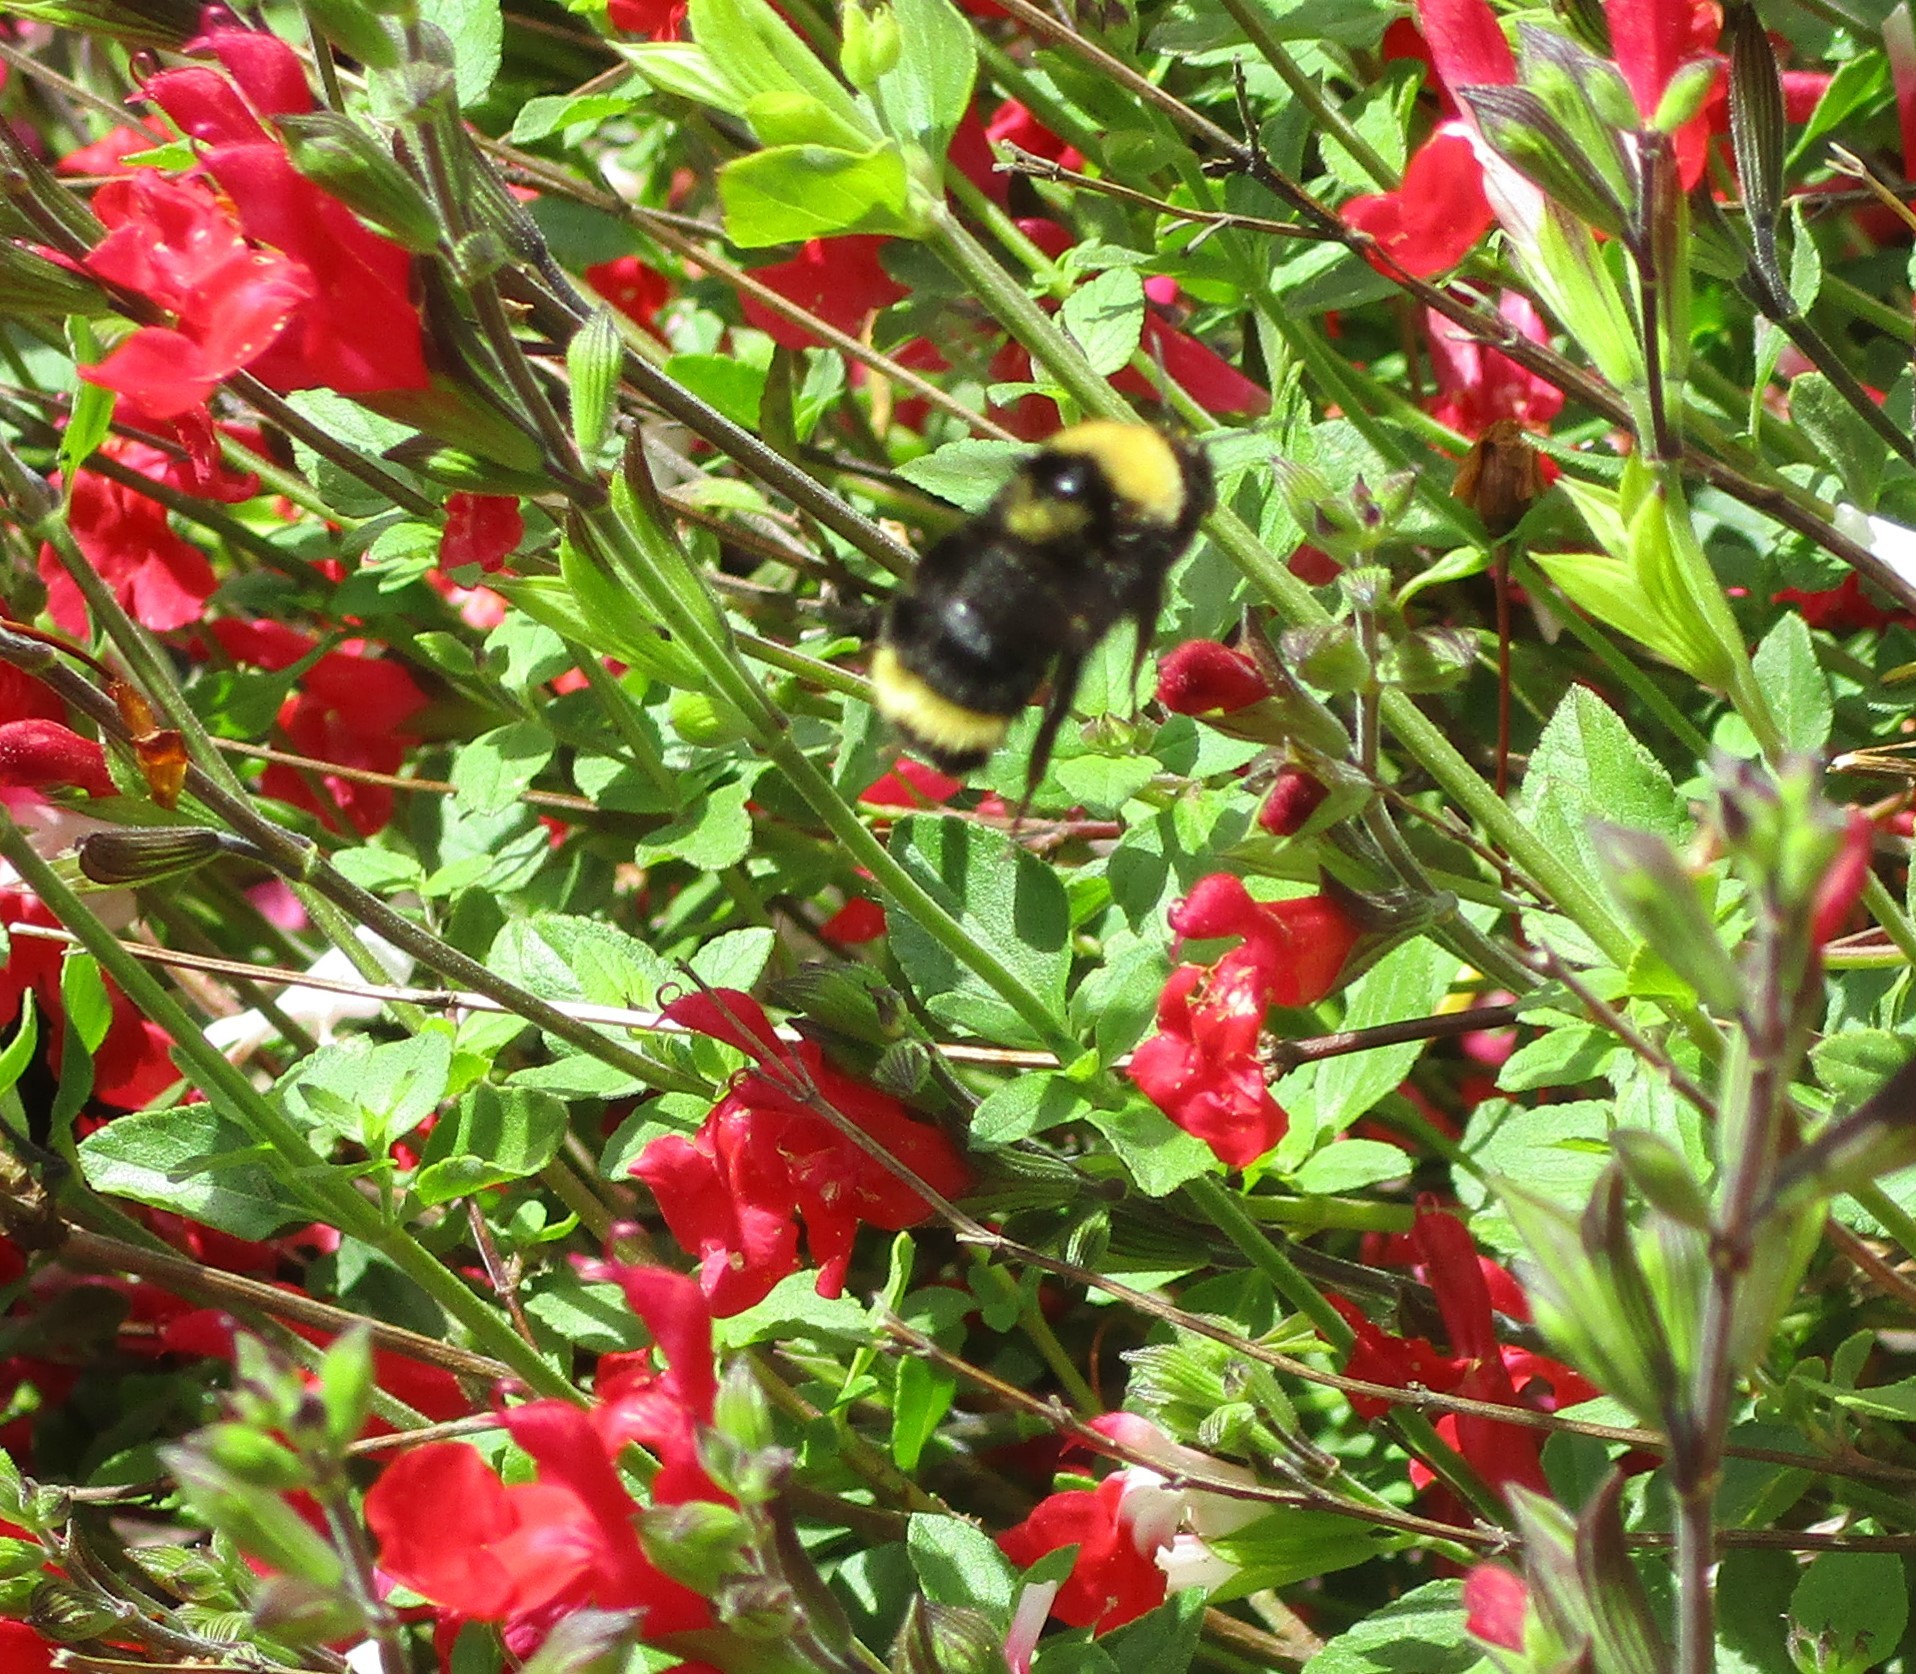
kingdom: Animalia
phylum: Arthropoda
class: Insecta
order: Hymenoptera
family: Apidae
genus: Bombus
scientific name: Bombus californicus
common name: California bumble bee
